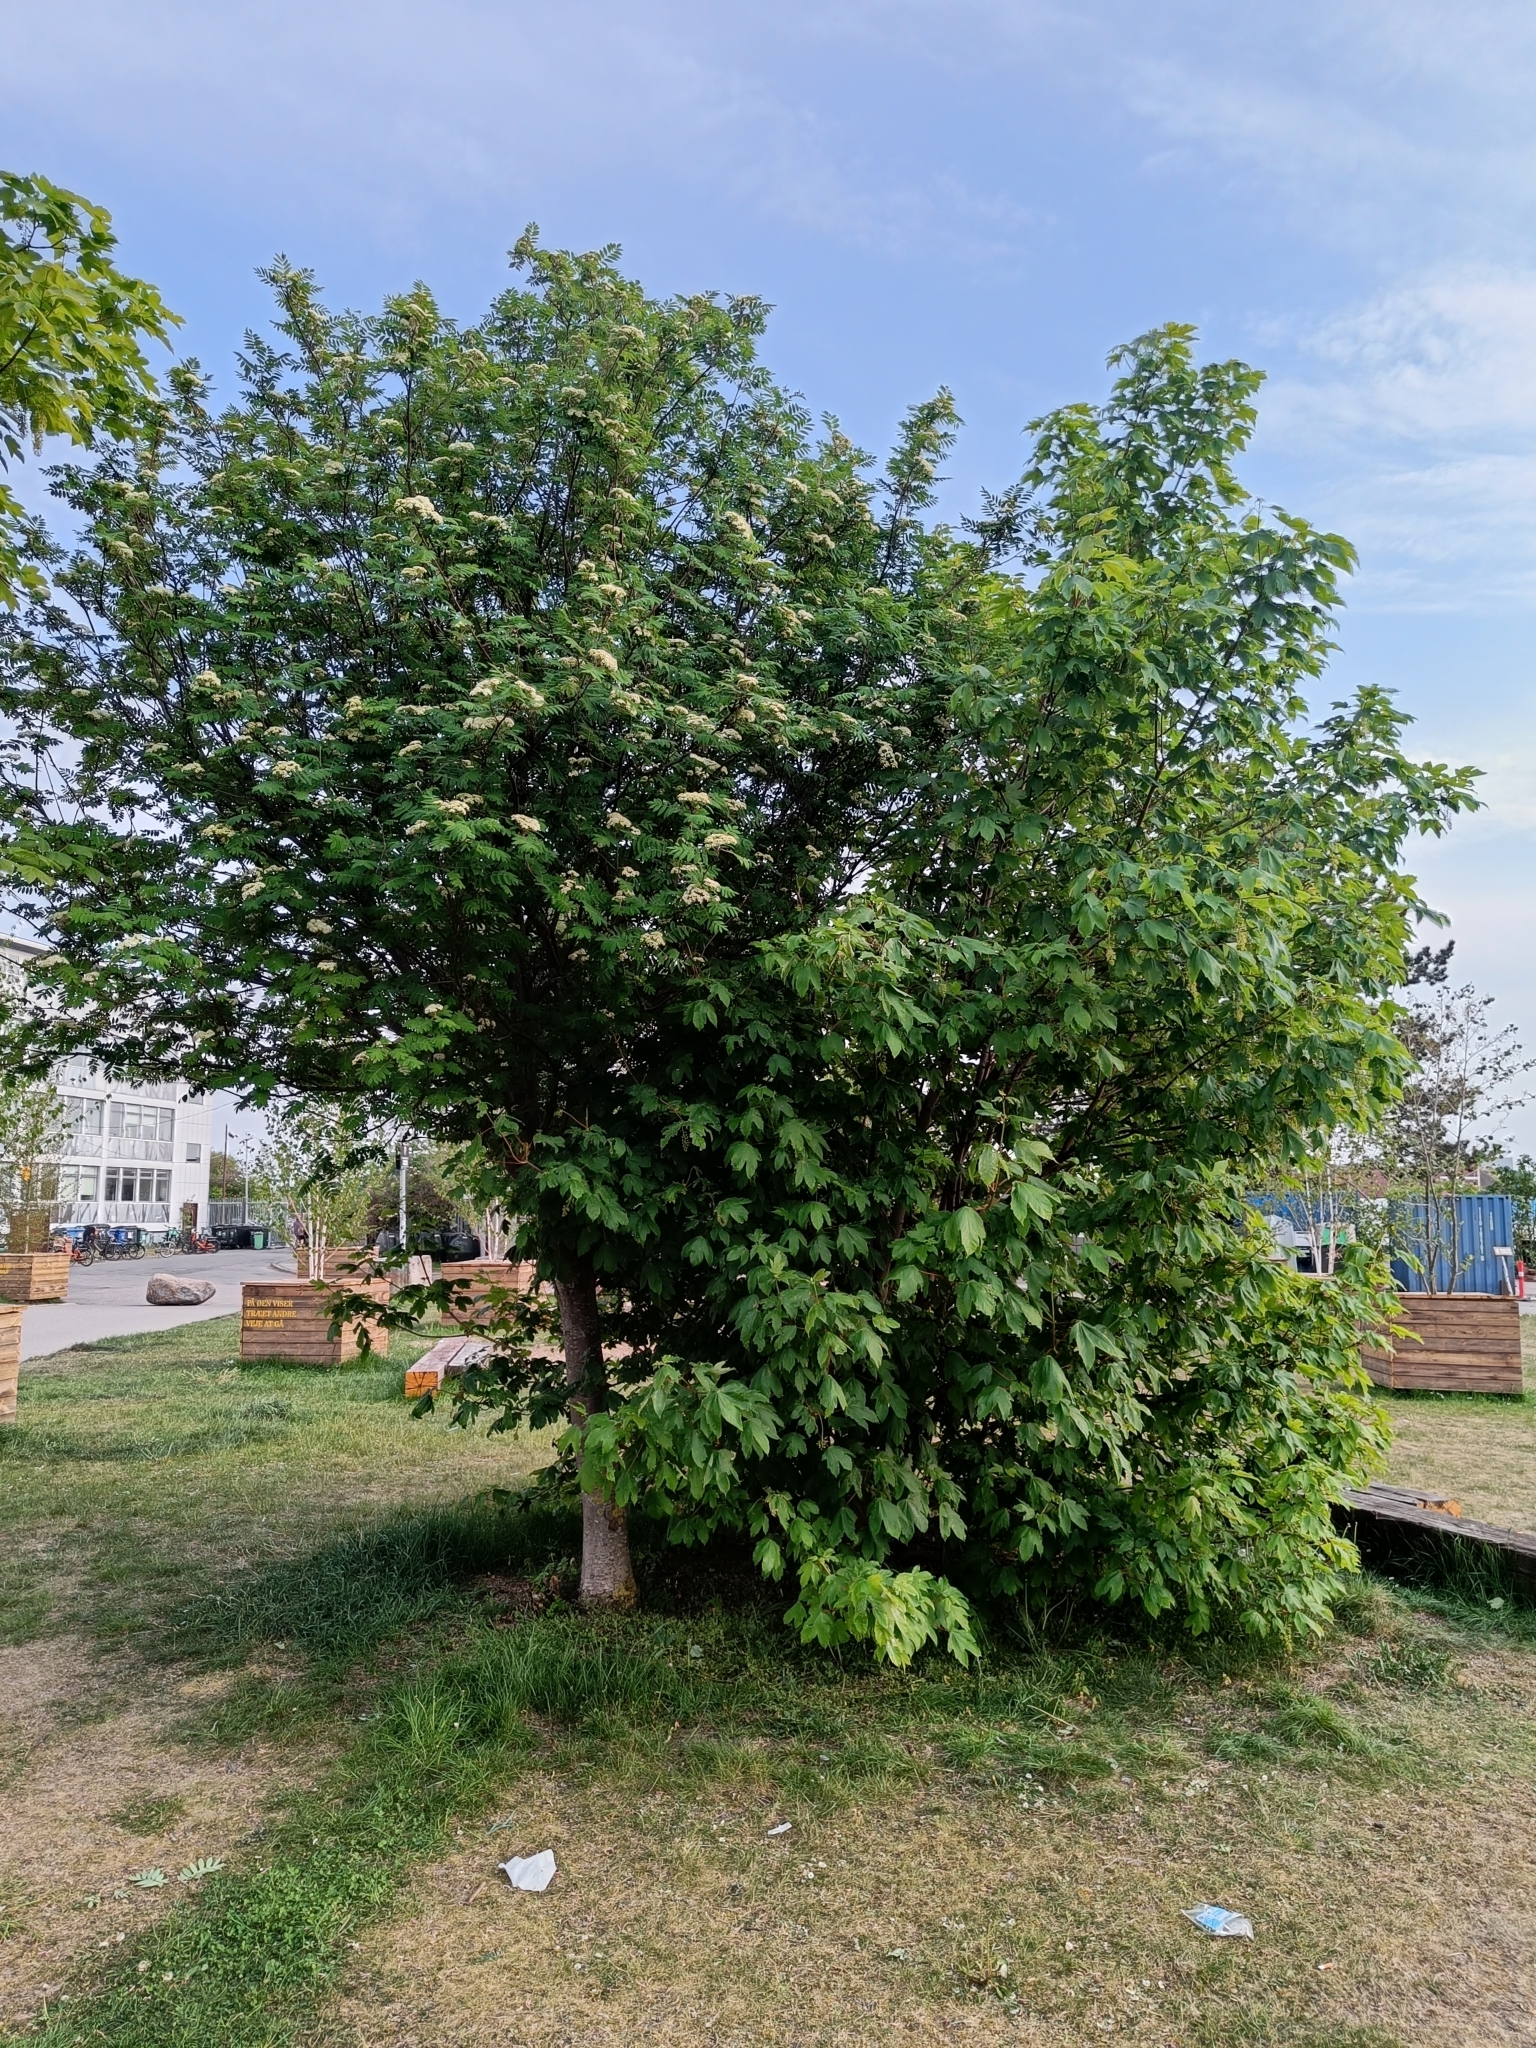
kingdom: Plantae
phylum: Tracheophyta
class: Magnoliopsida
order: Sapindales
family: Sapindaceae
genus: Acer
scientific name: Acer pseudoplatanus
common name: Sycamore
